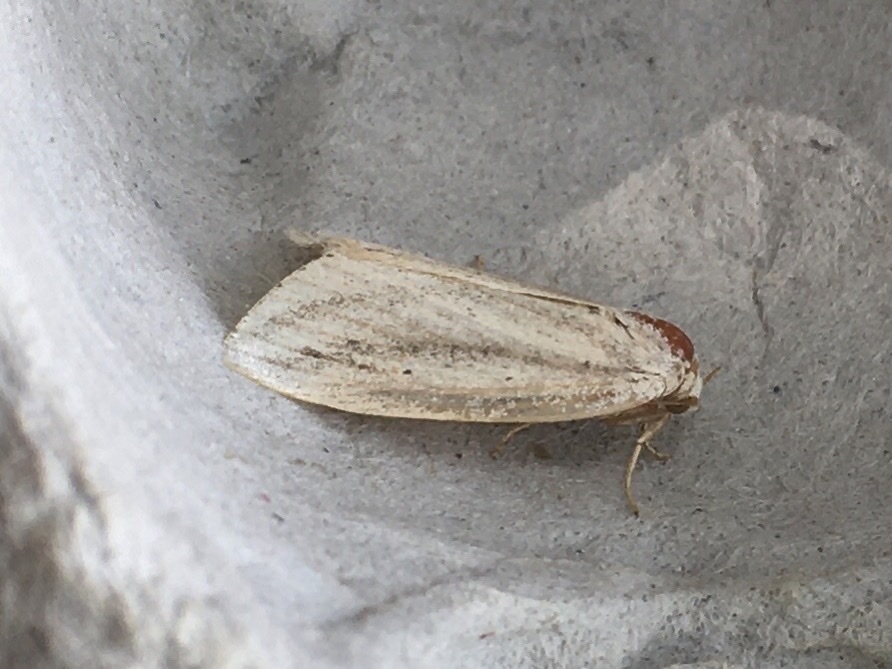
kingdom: Animalia
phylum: Arthropoda
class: Insecta
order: Lepidoptera
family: Noctuidae
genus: Amolita
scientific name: Amolita fessa
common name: Feeble grass moth
